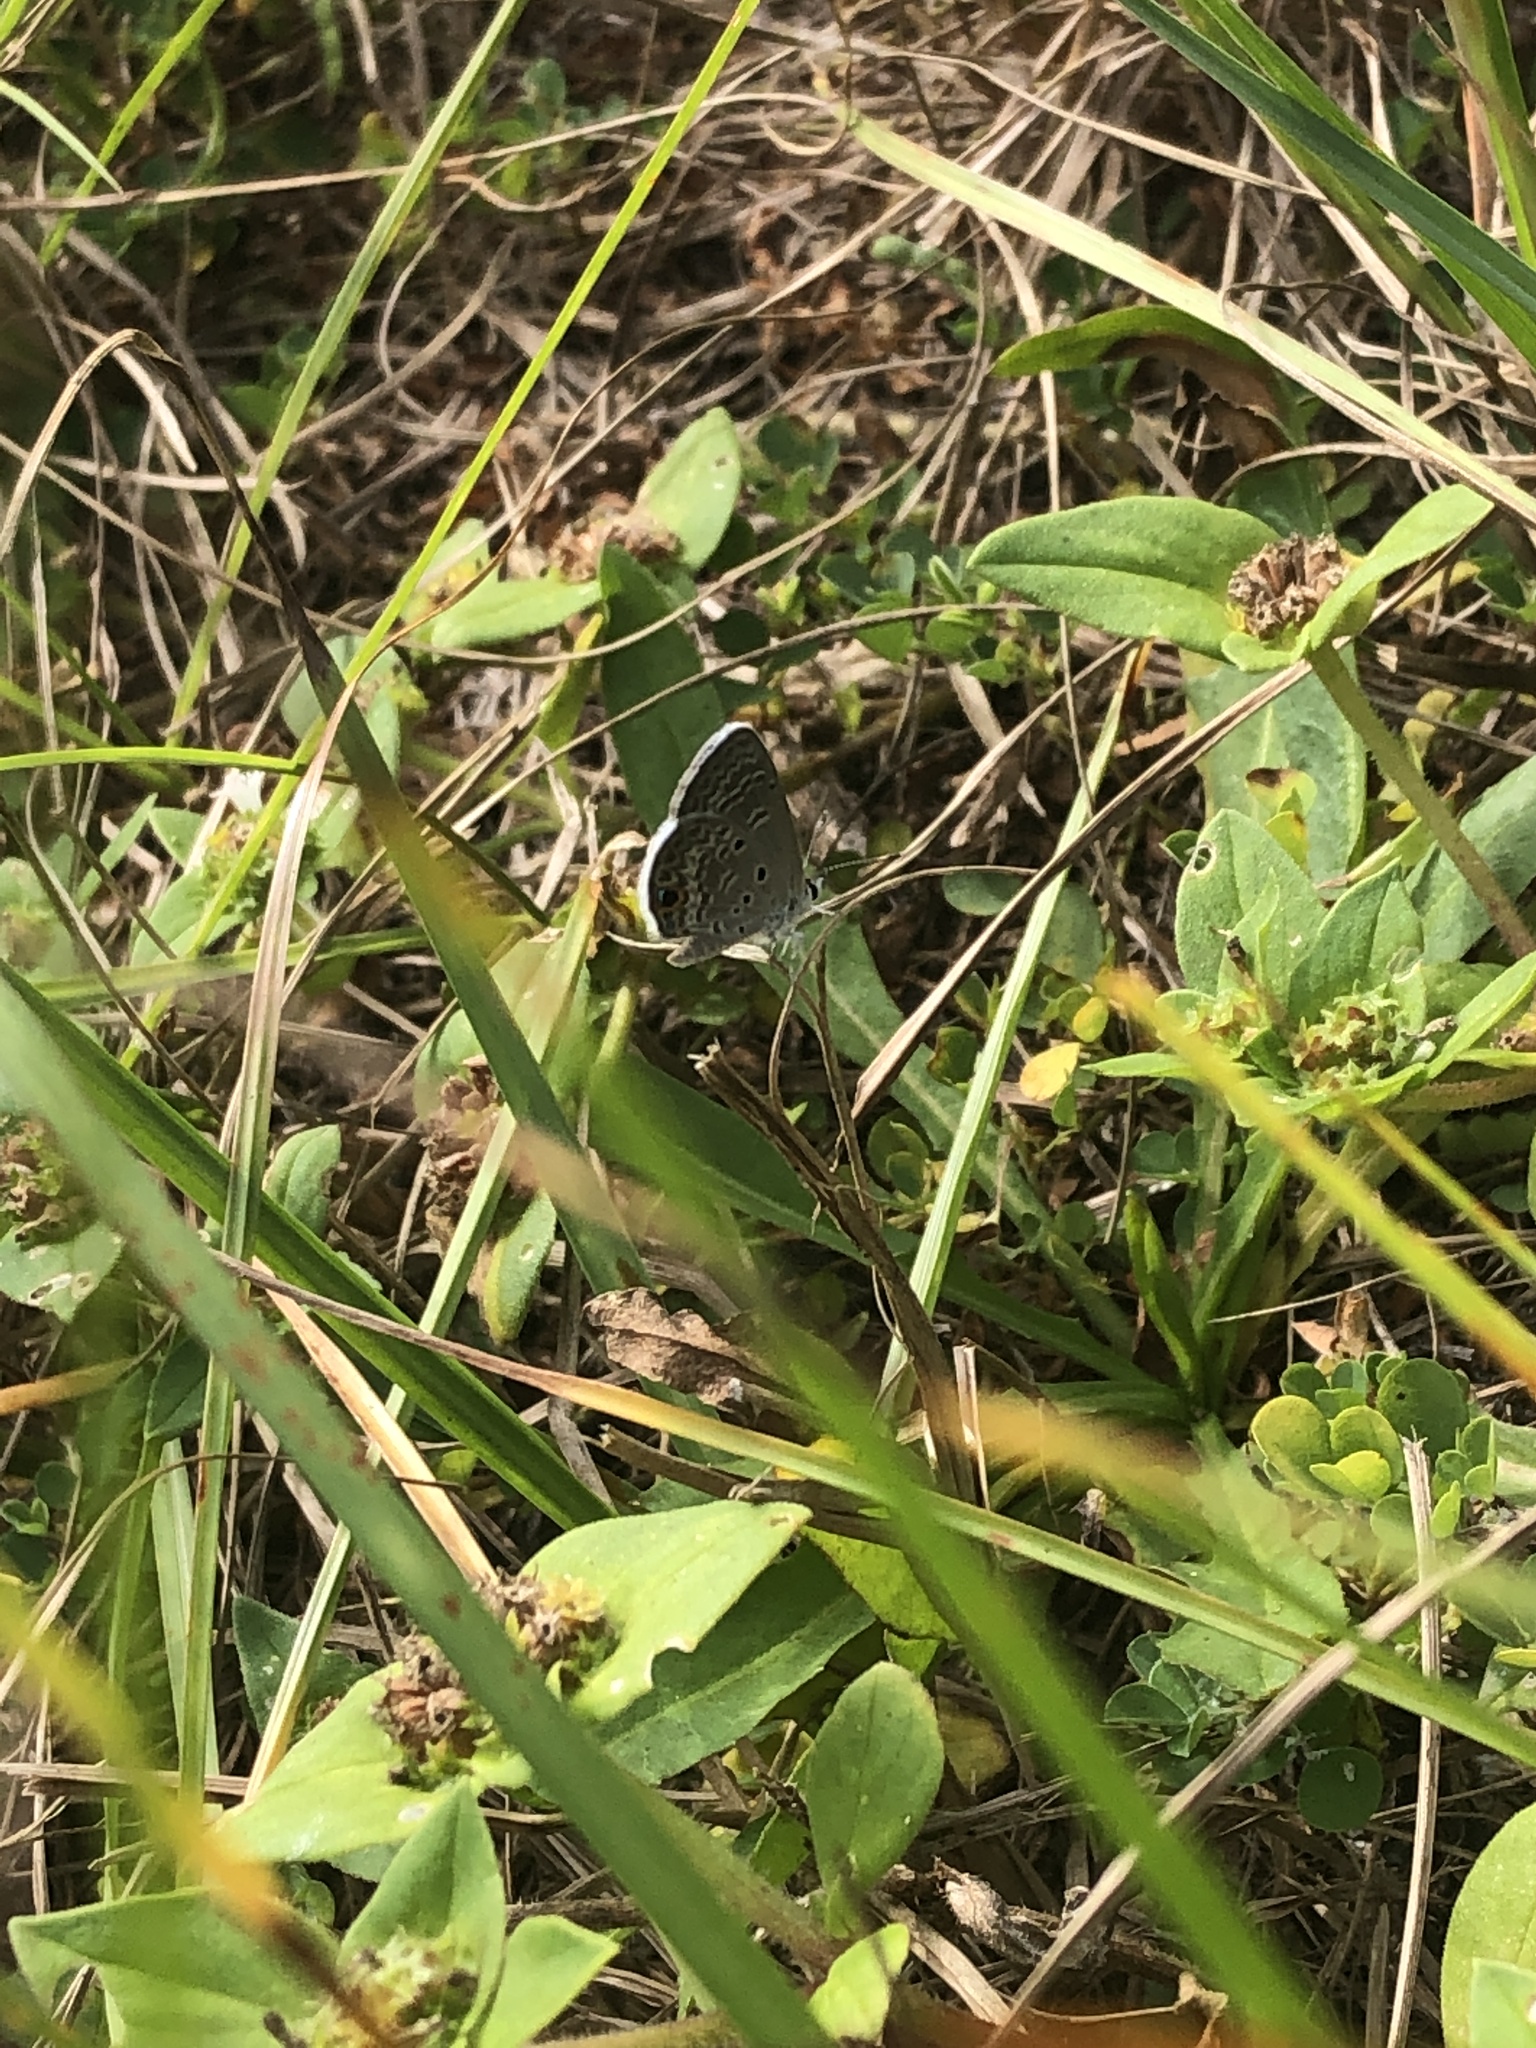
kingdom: Animalia
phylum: Arthropoda
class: Insecta
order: Lepidoptera
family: Lycaenidae
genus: Hemiargus
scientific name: Hemiargus ceraunus
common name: Ceraunus blue
